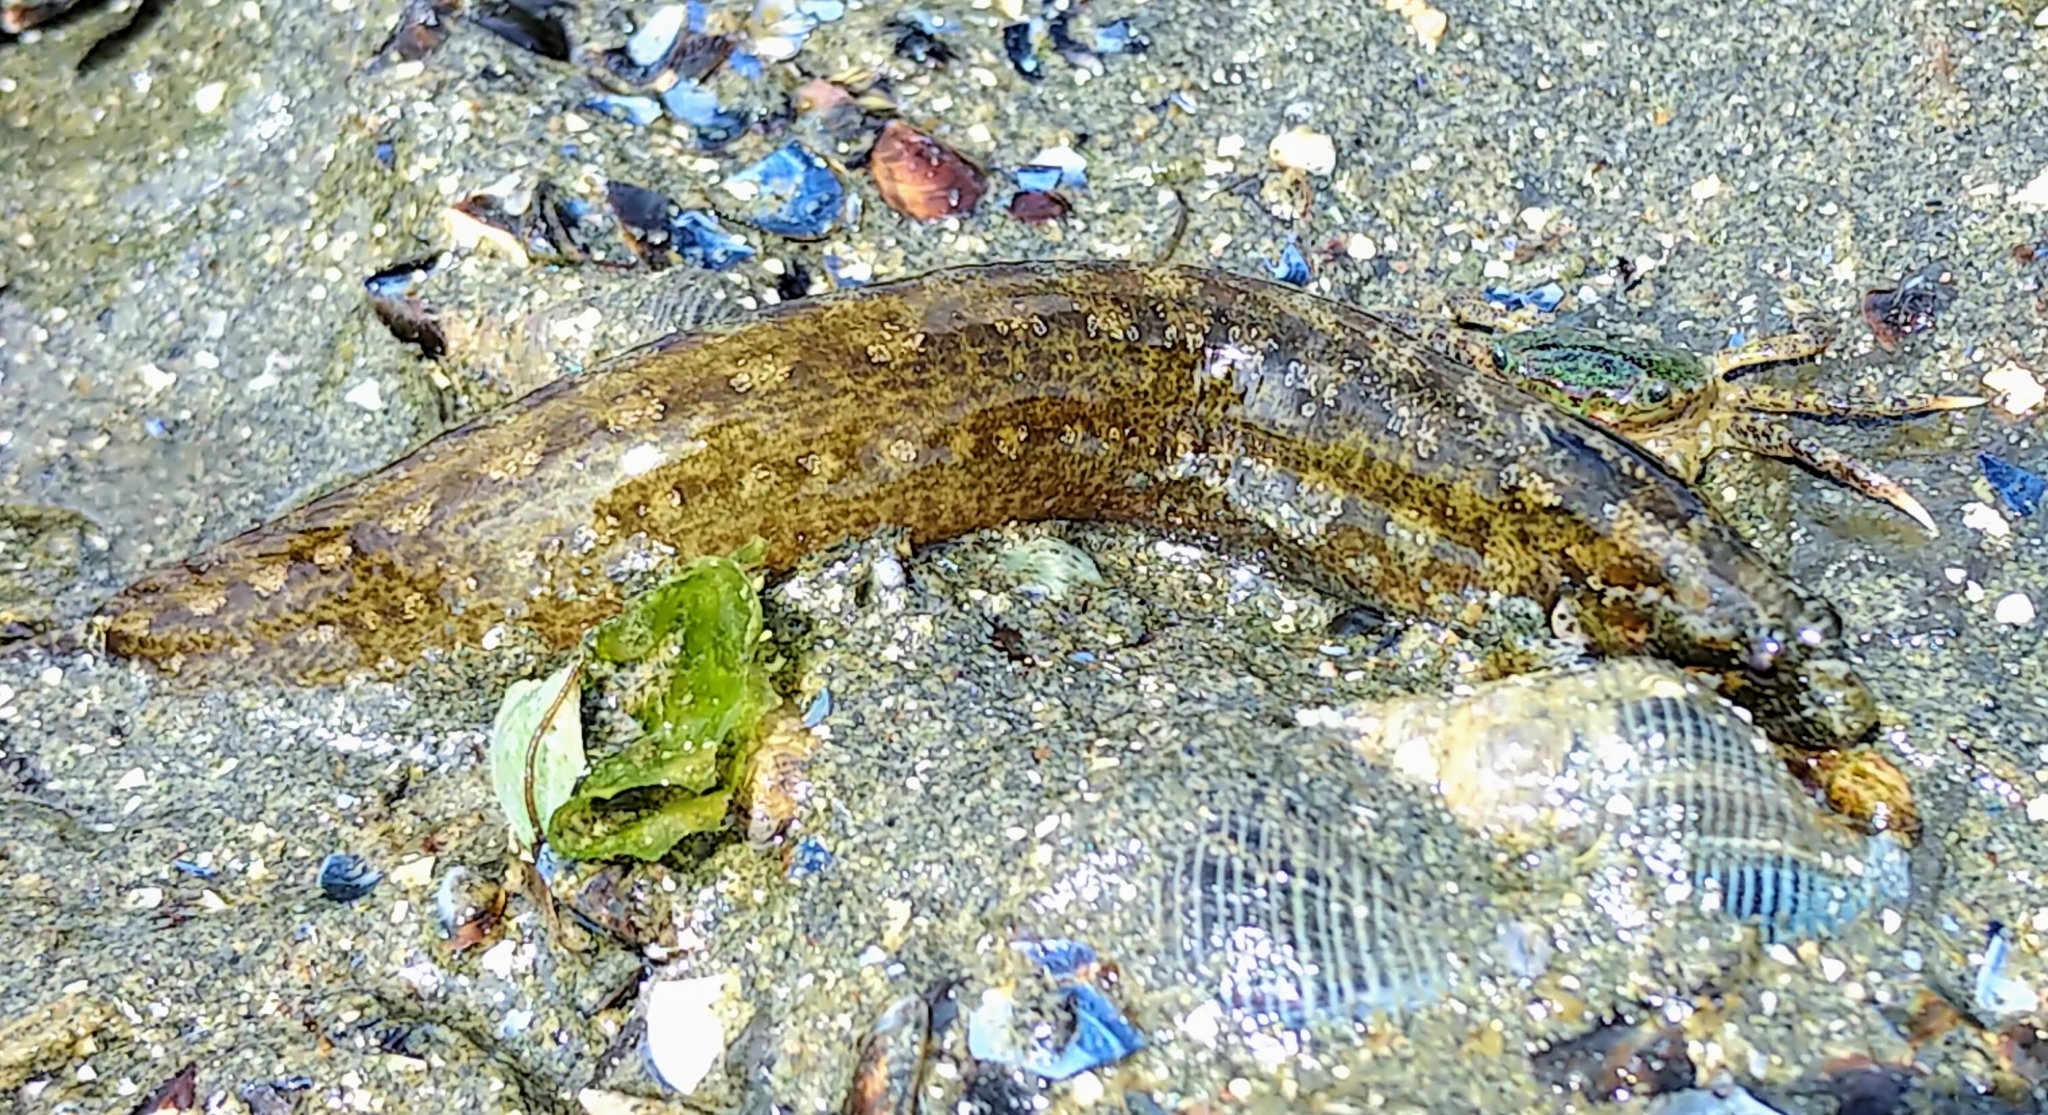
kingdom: Animalia
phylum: Chordata
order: Perciformes
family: Stichaeidae
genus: Anoplarchus
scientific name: Anoplarchus purpurescens
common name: High cockscomb
